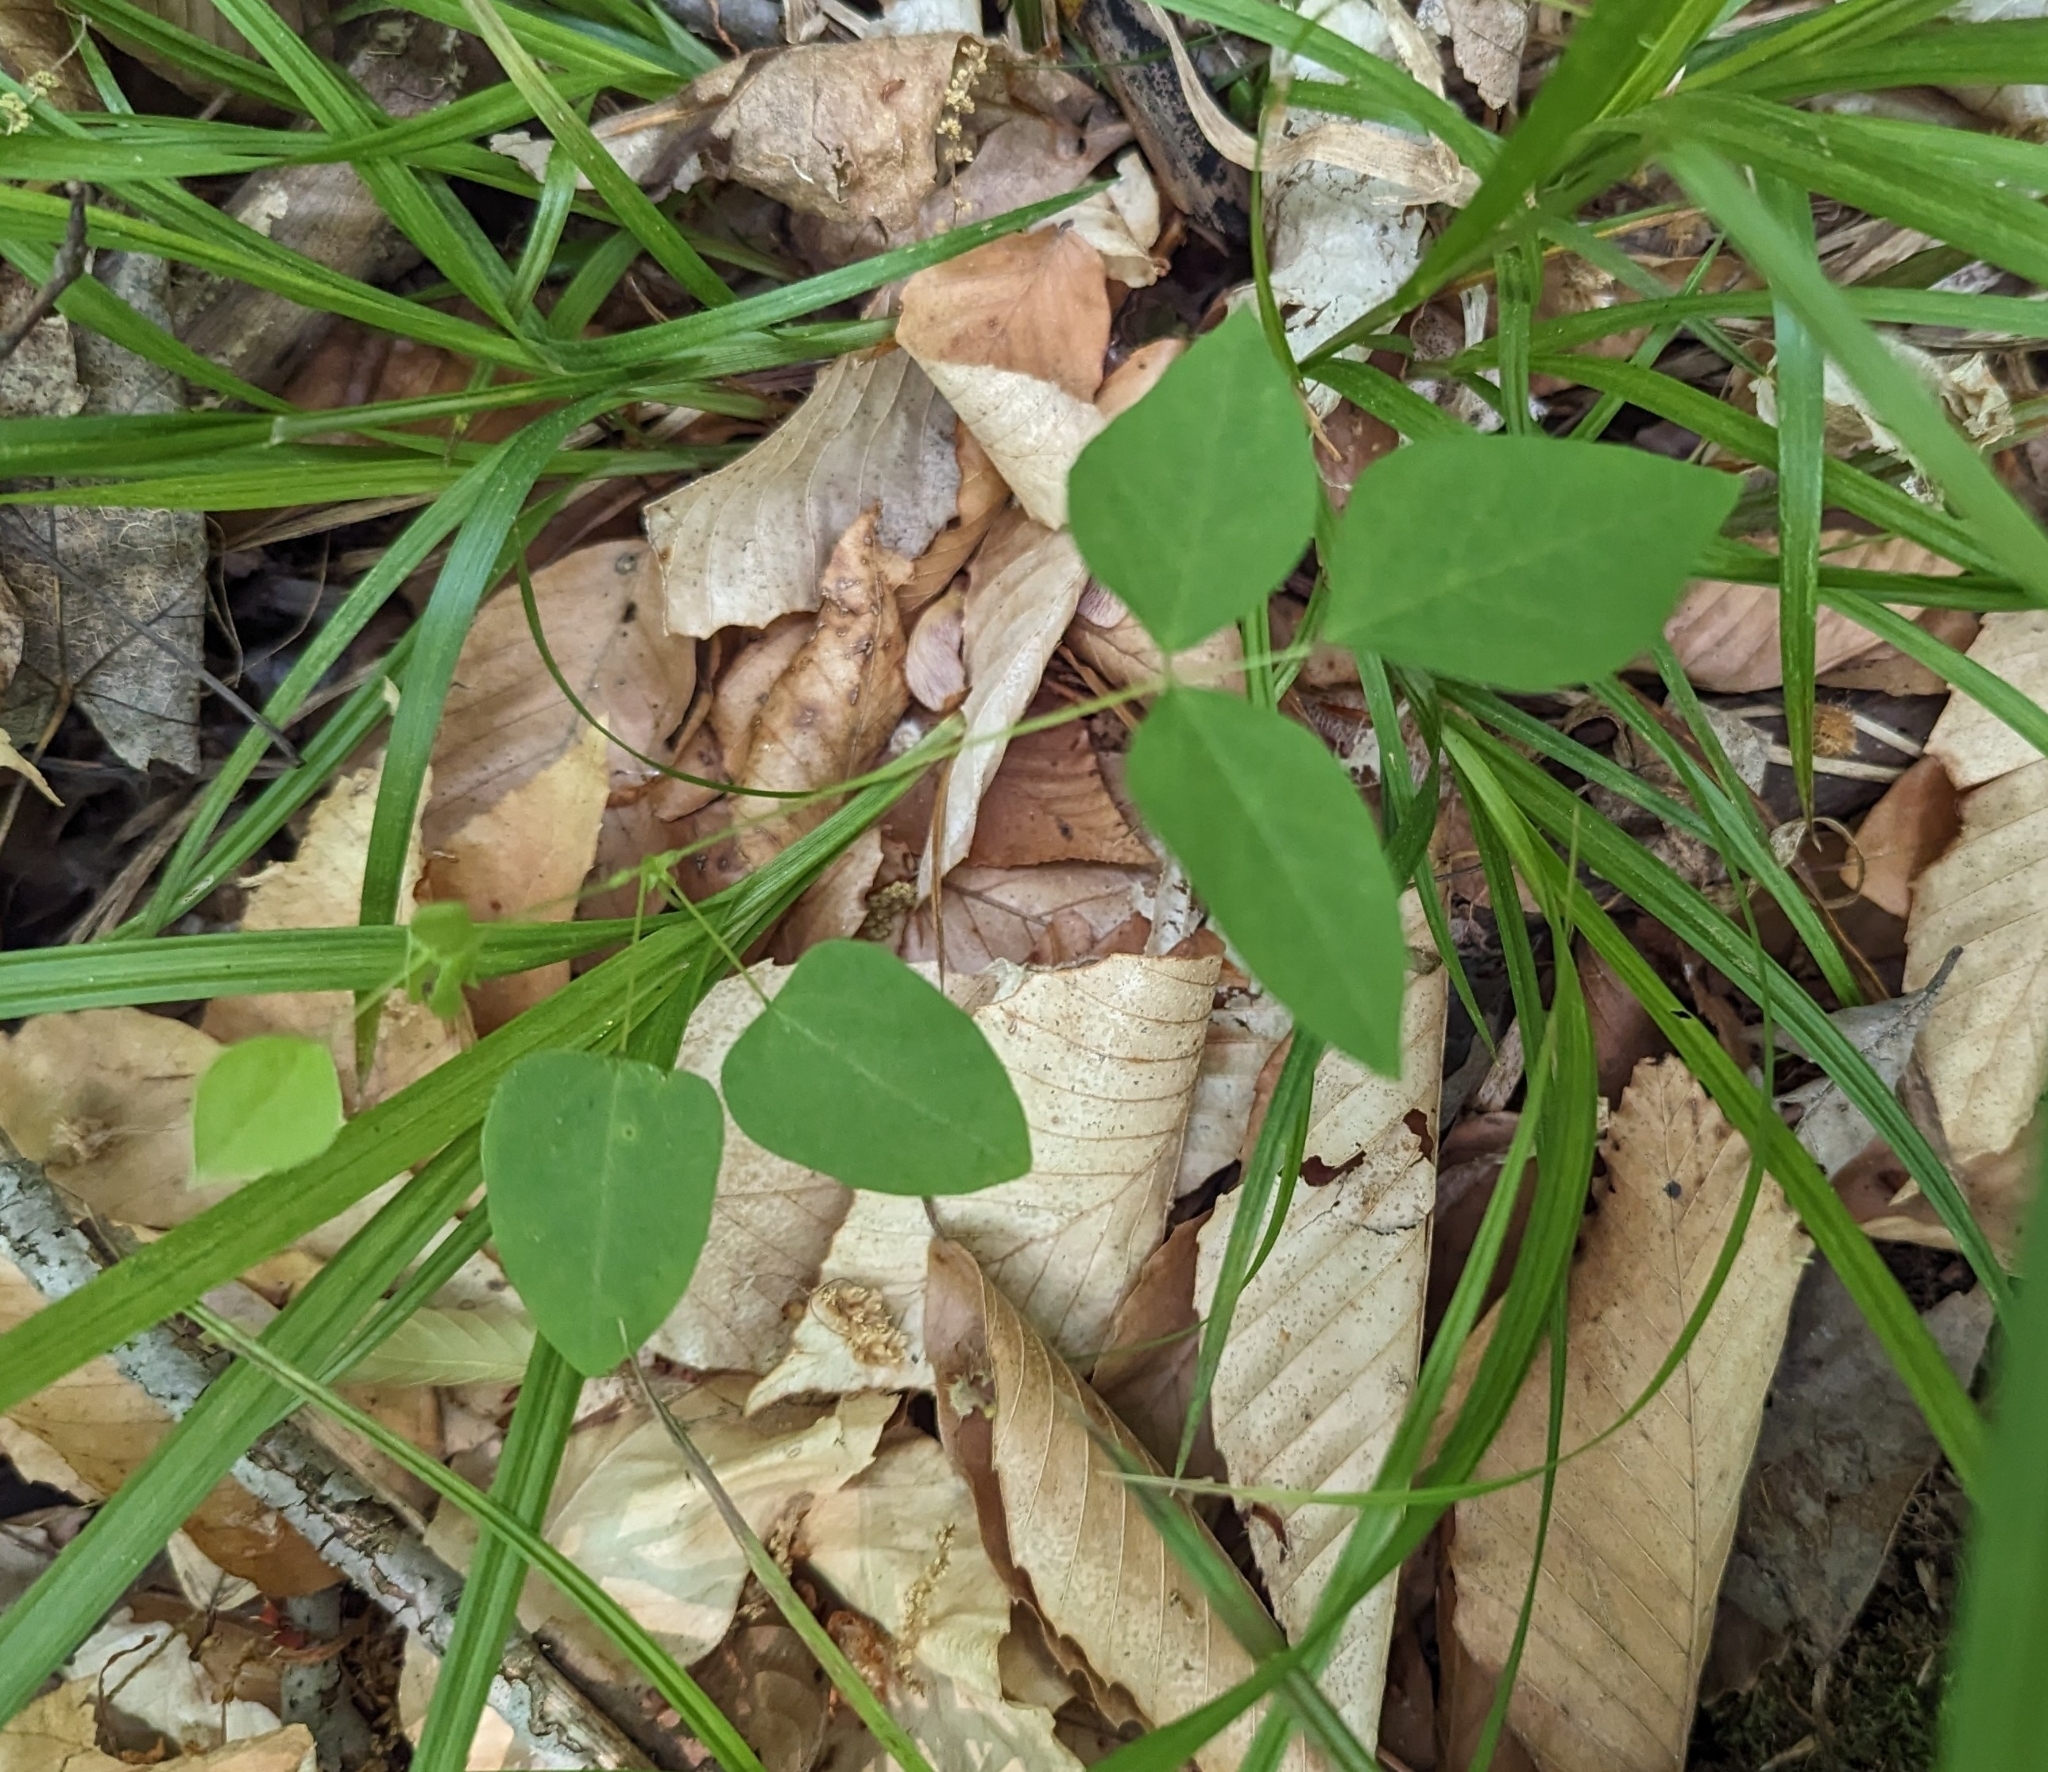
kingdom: Plantae
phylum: Tracheophyta
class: Magnoliopsida
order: Fabales
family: Fabaceae
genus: Amphicarpaea
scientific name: Amphicarpaea bracteata
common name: American hog peanut
